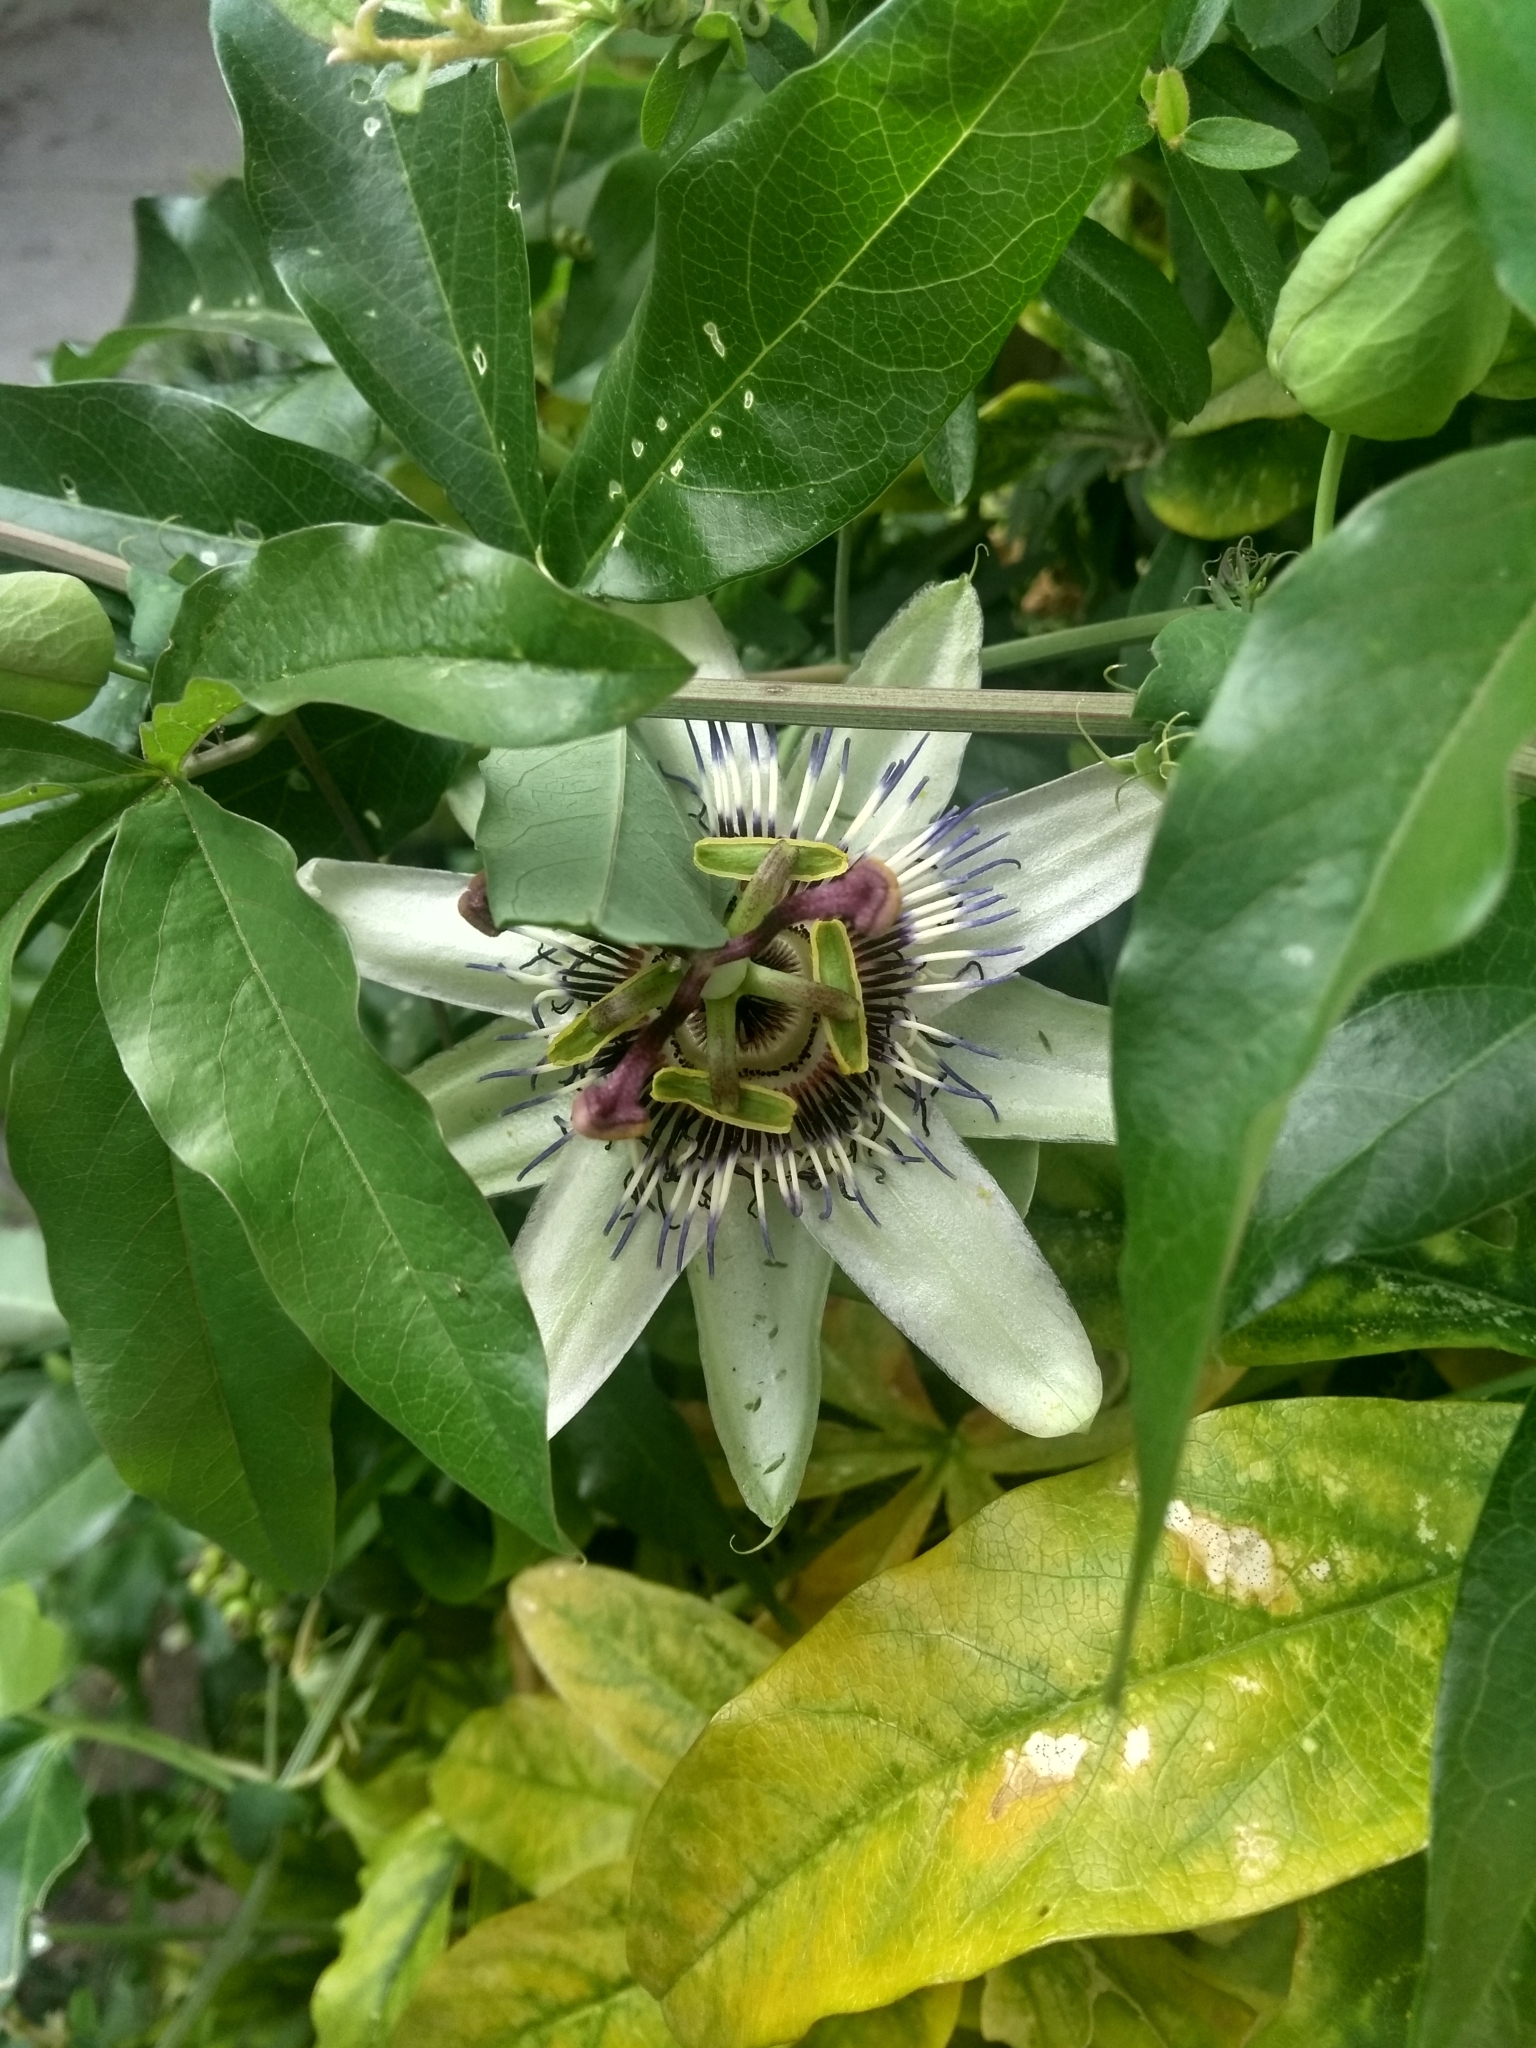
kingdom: Plantae
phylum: Tracheophyta
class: Magnoliopsida
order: Malpighiales
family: Passifloraceae
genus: Passiflora
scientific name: Passiflora caerulea
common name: Blue passionflower
